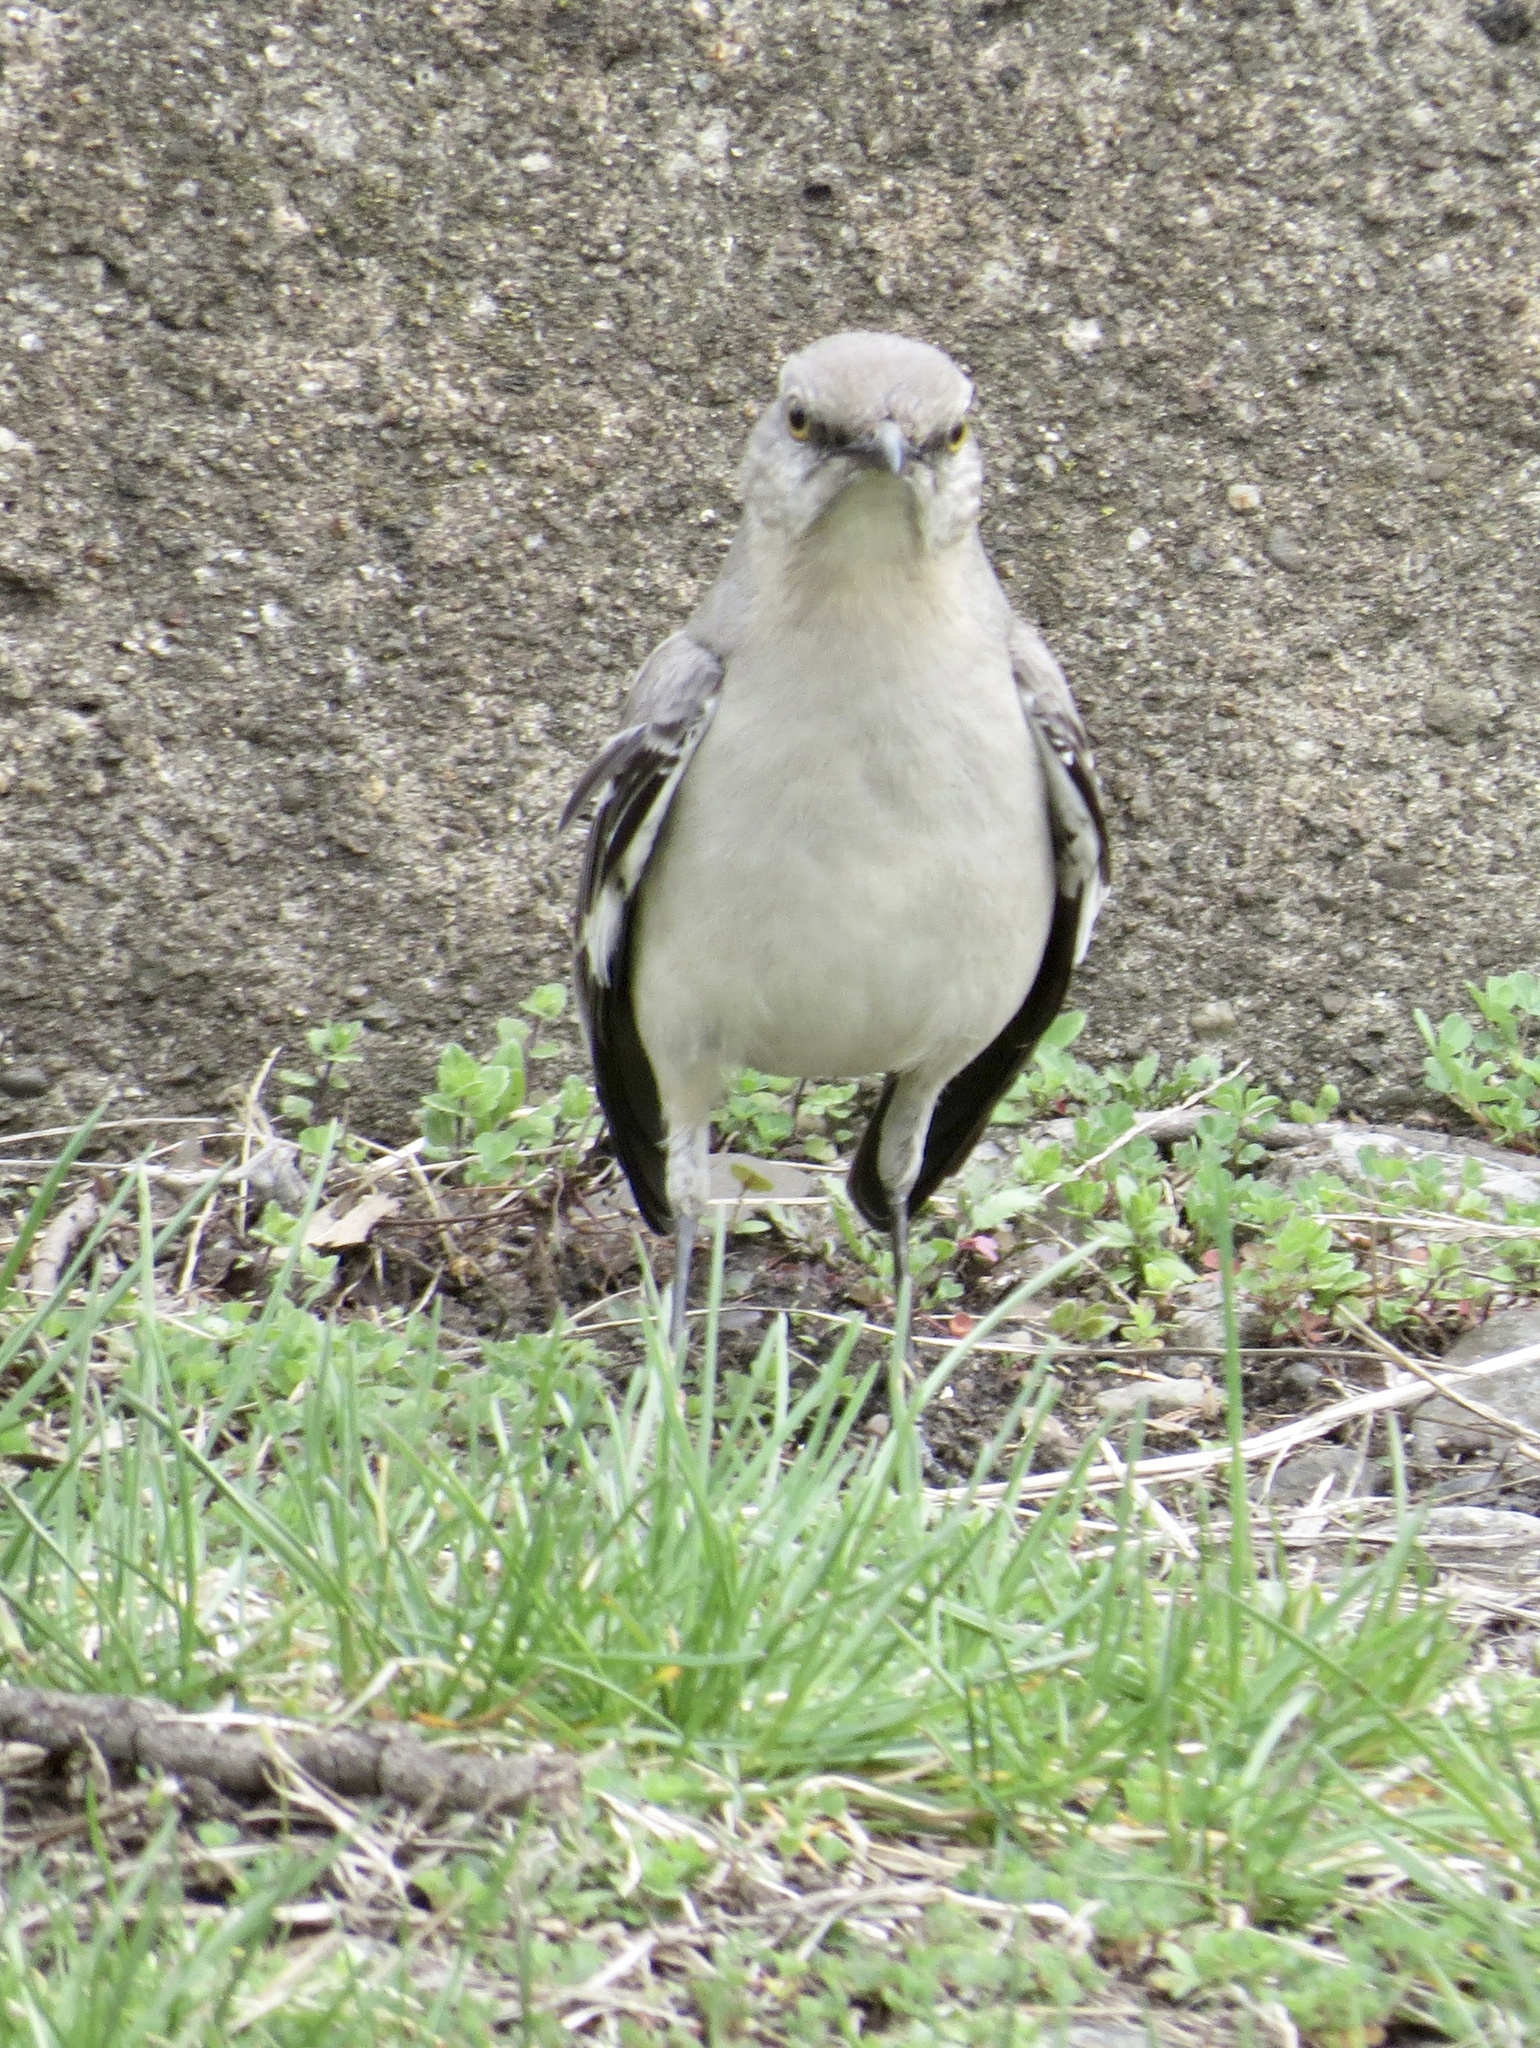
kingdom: Animalia
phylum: Chordata
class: Aves
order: Passeriformes
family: Mimidae
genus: Mimus
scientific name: Mimus polyglottos
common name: Northern mockingbird
